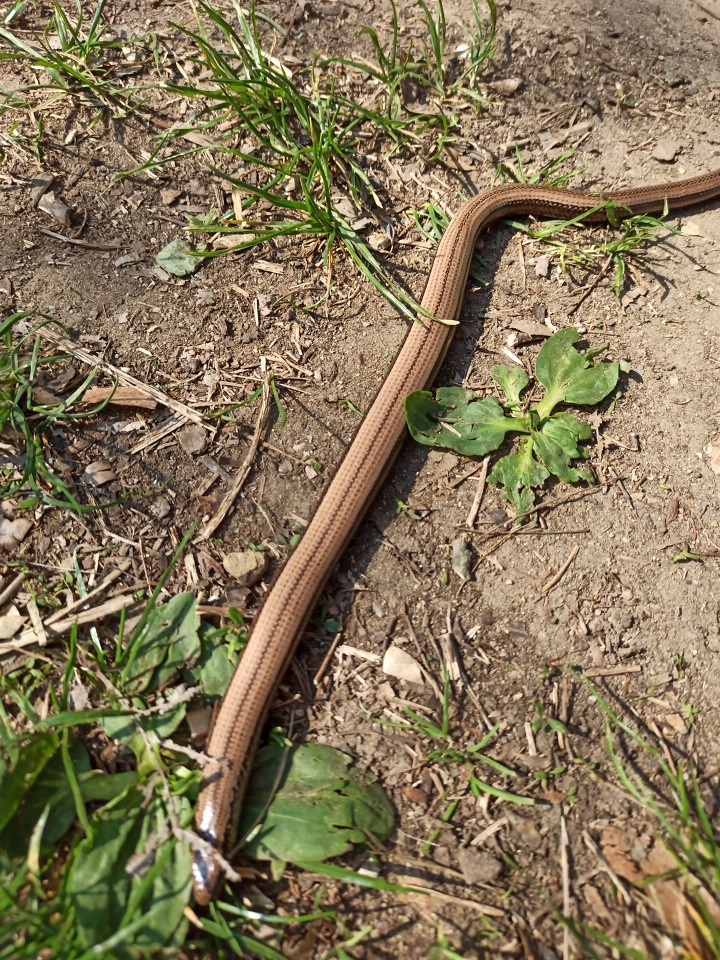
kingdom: Animalia
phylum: Chordata
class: Squamata
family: Anguidae
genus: Anguis
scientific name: Anguis fragilis
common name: Slow worm
